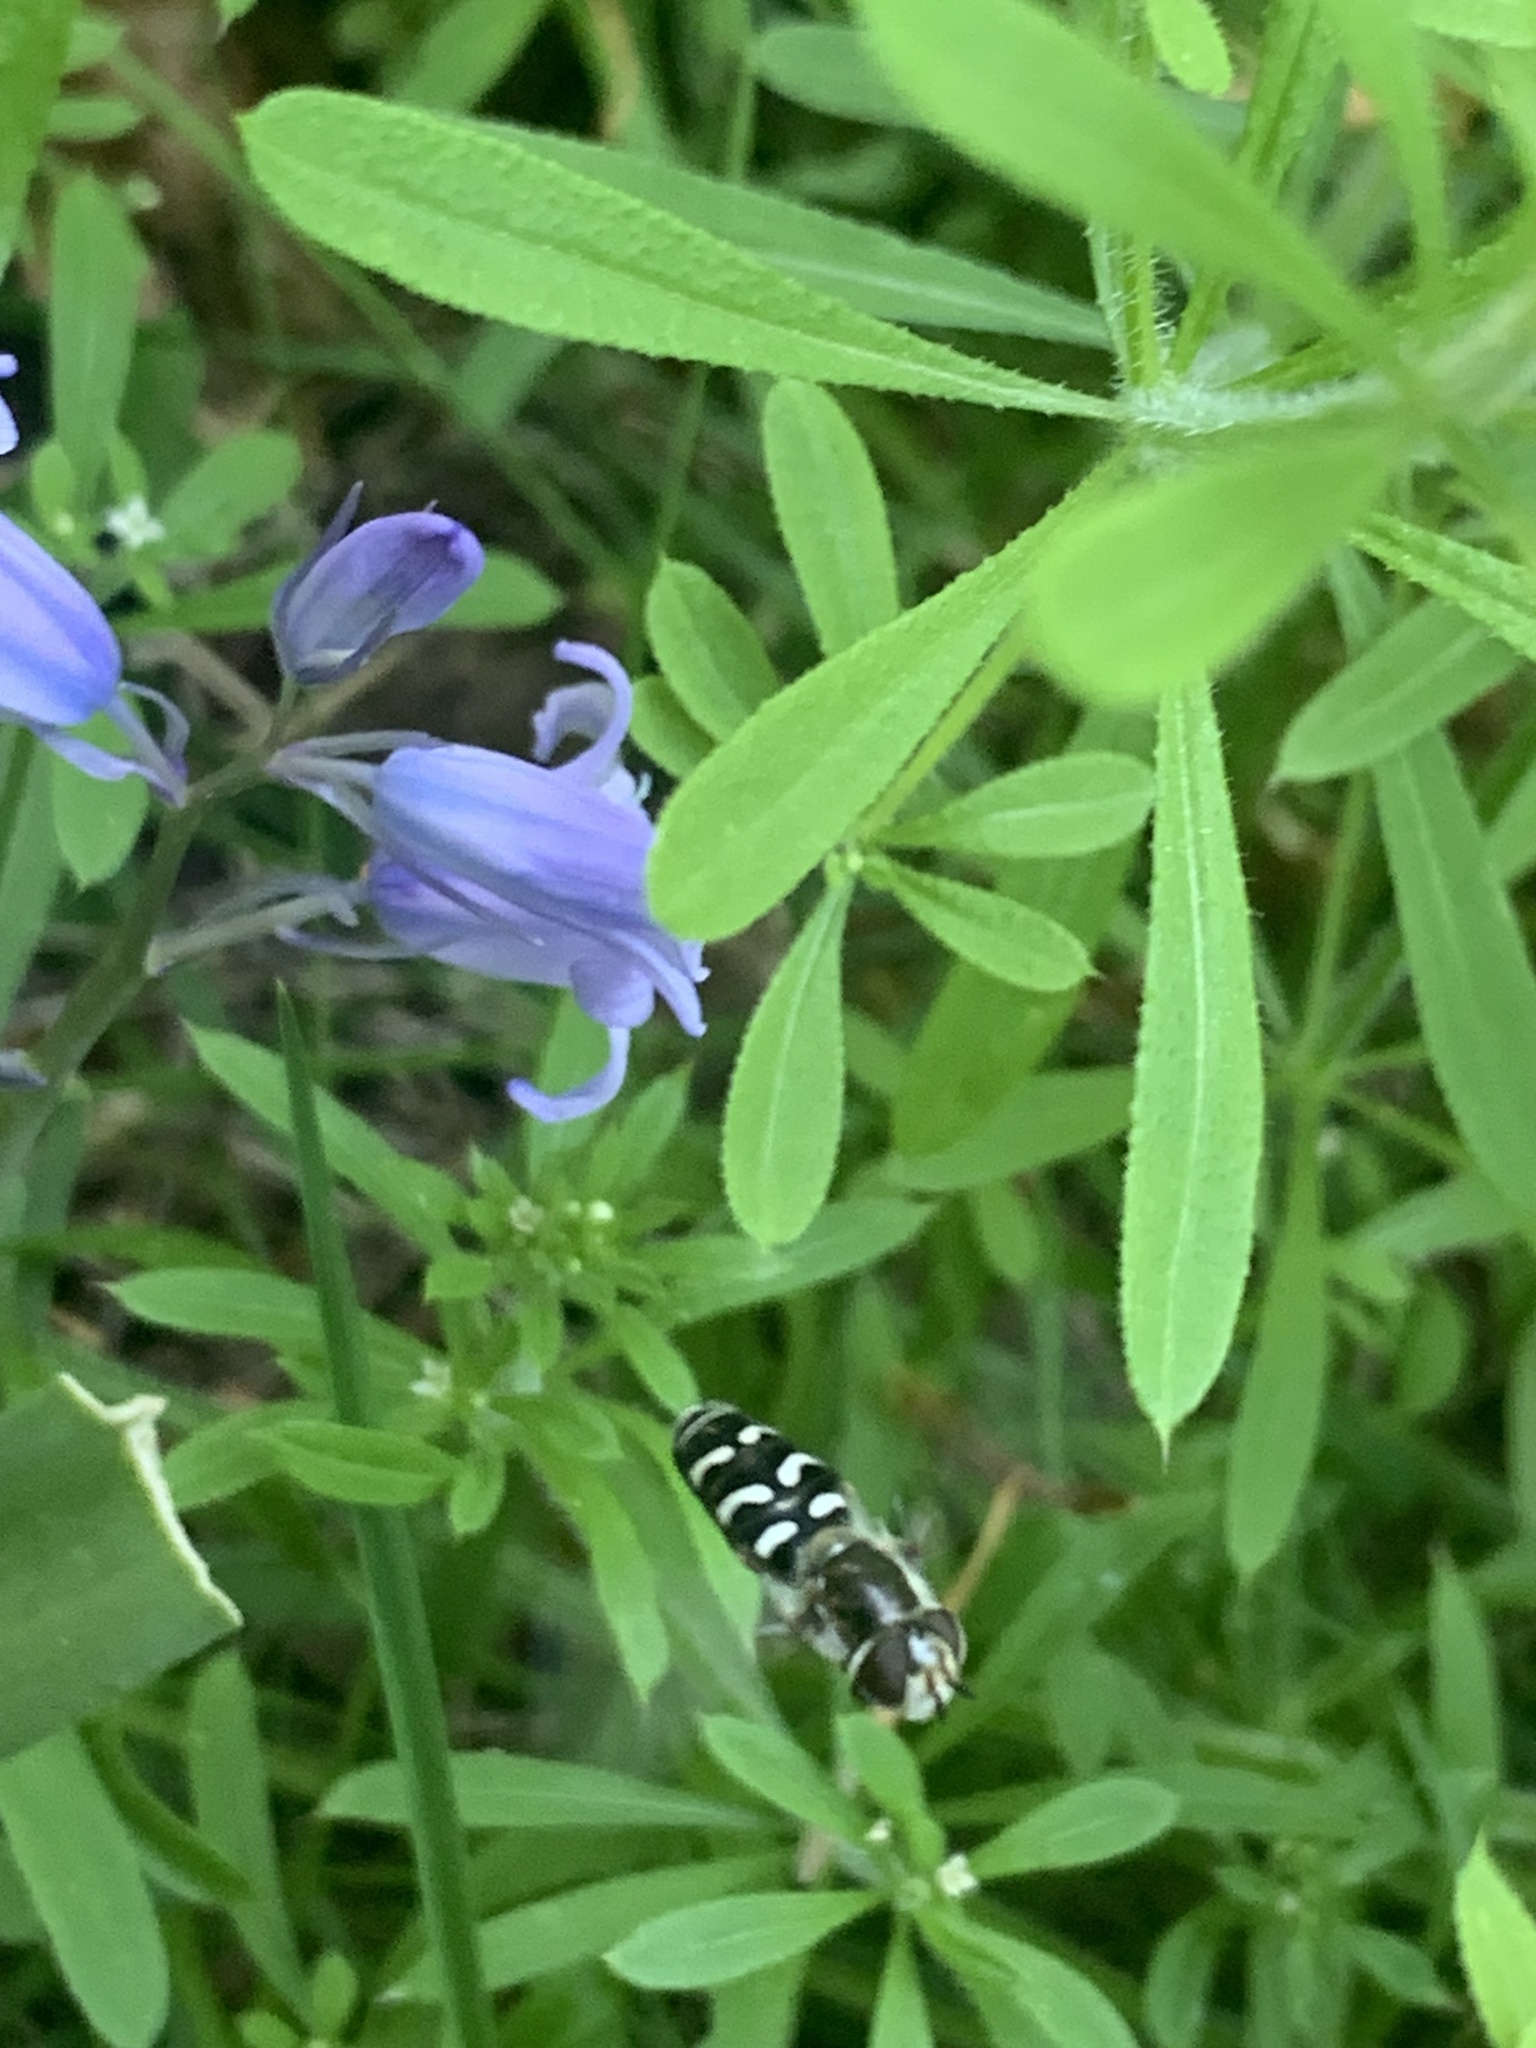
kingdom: Animalia
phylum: Arthropoda
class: Insecta
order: Diptera
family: Syrphidae
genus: Scaeva
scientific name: Scaeva affinis
